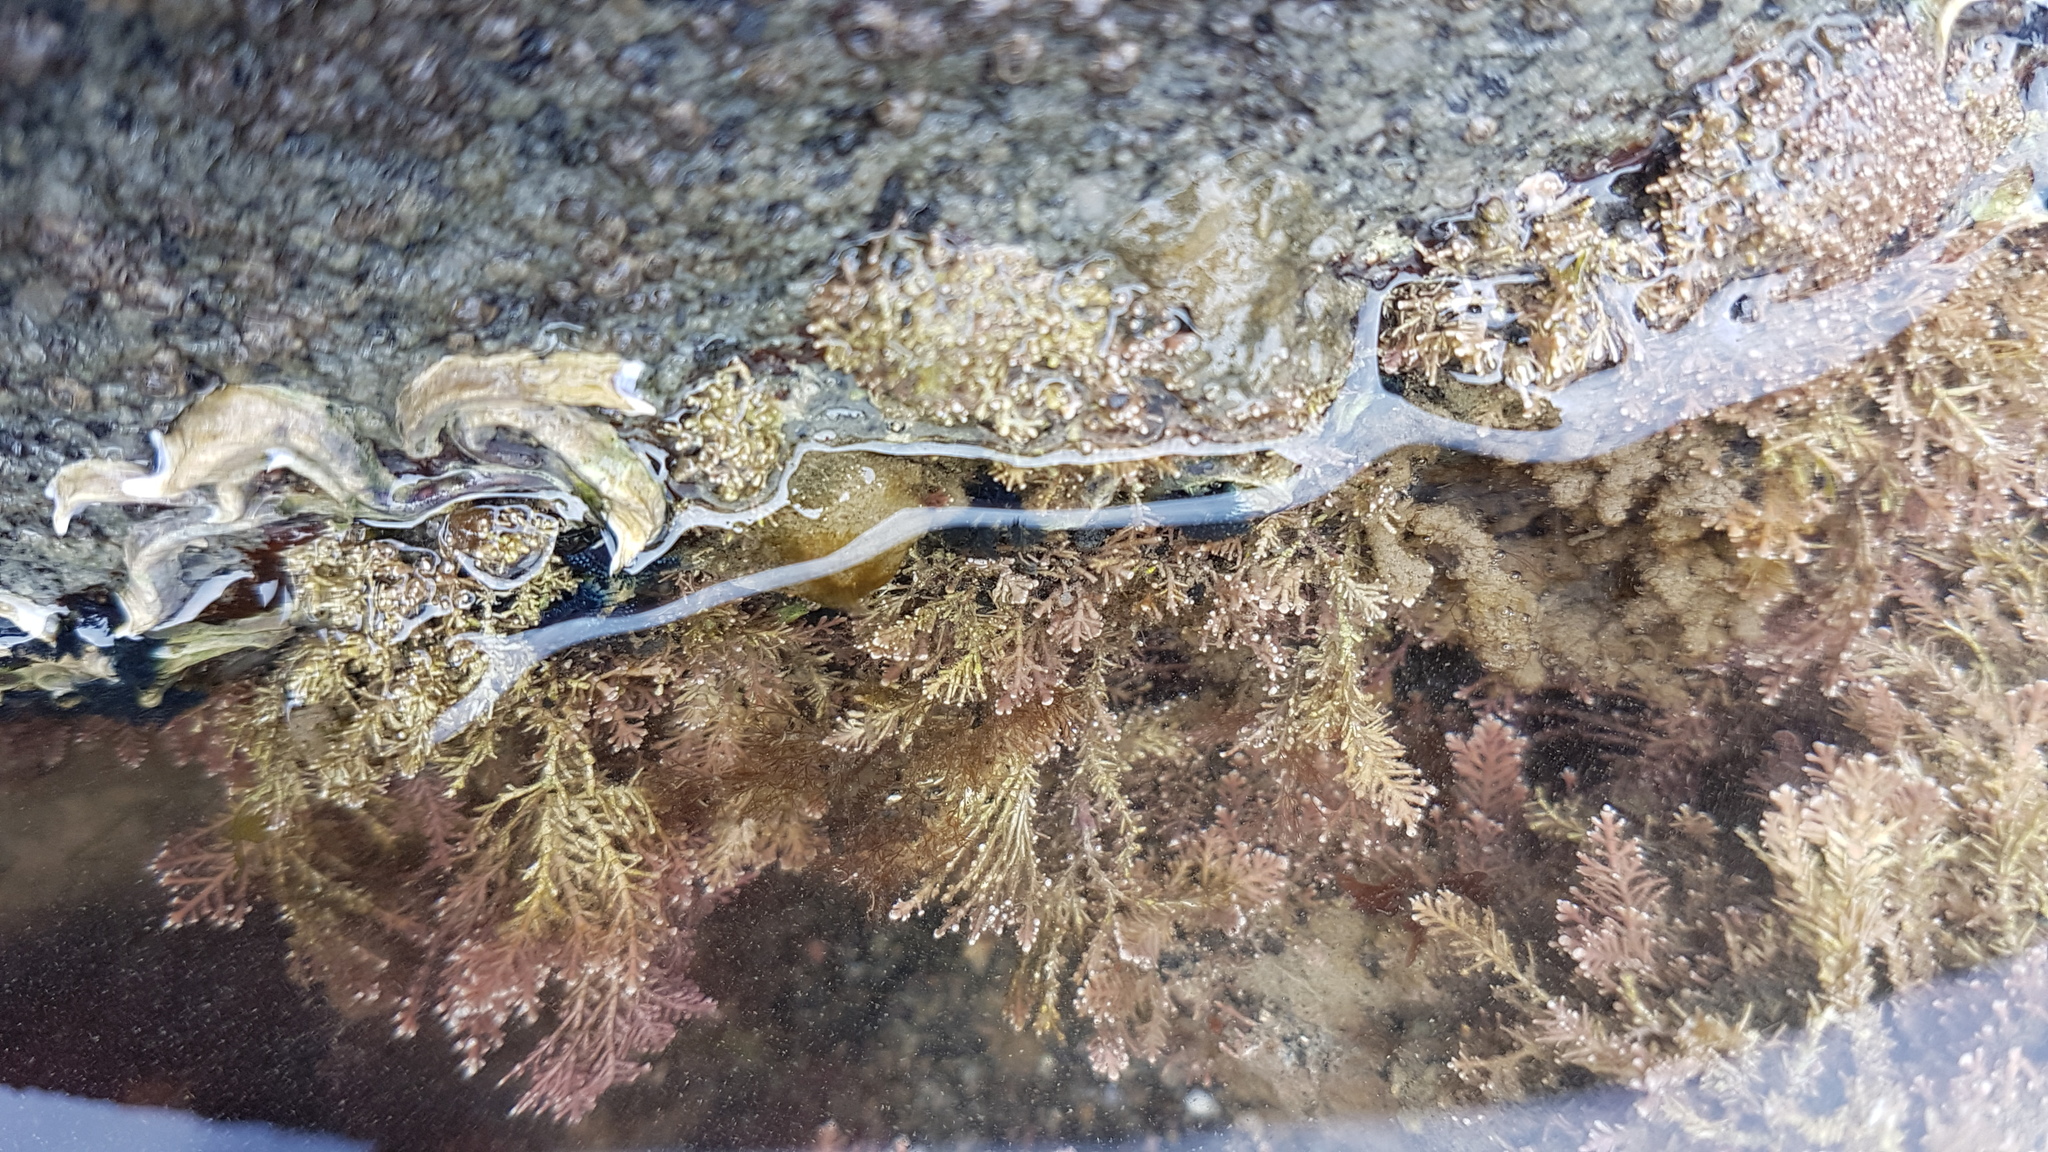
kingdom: Animalia
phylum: Annelida
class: Polychaeta
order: Sabellida
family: Serpulidae
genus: Spirobranchus
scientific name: Spirobranchus cariniferus
